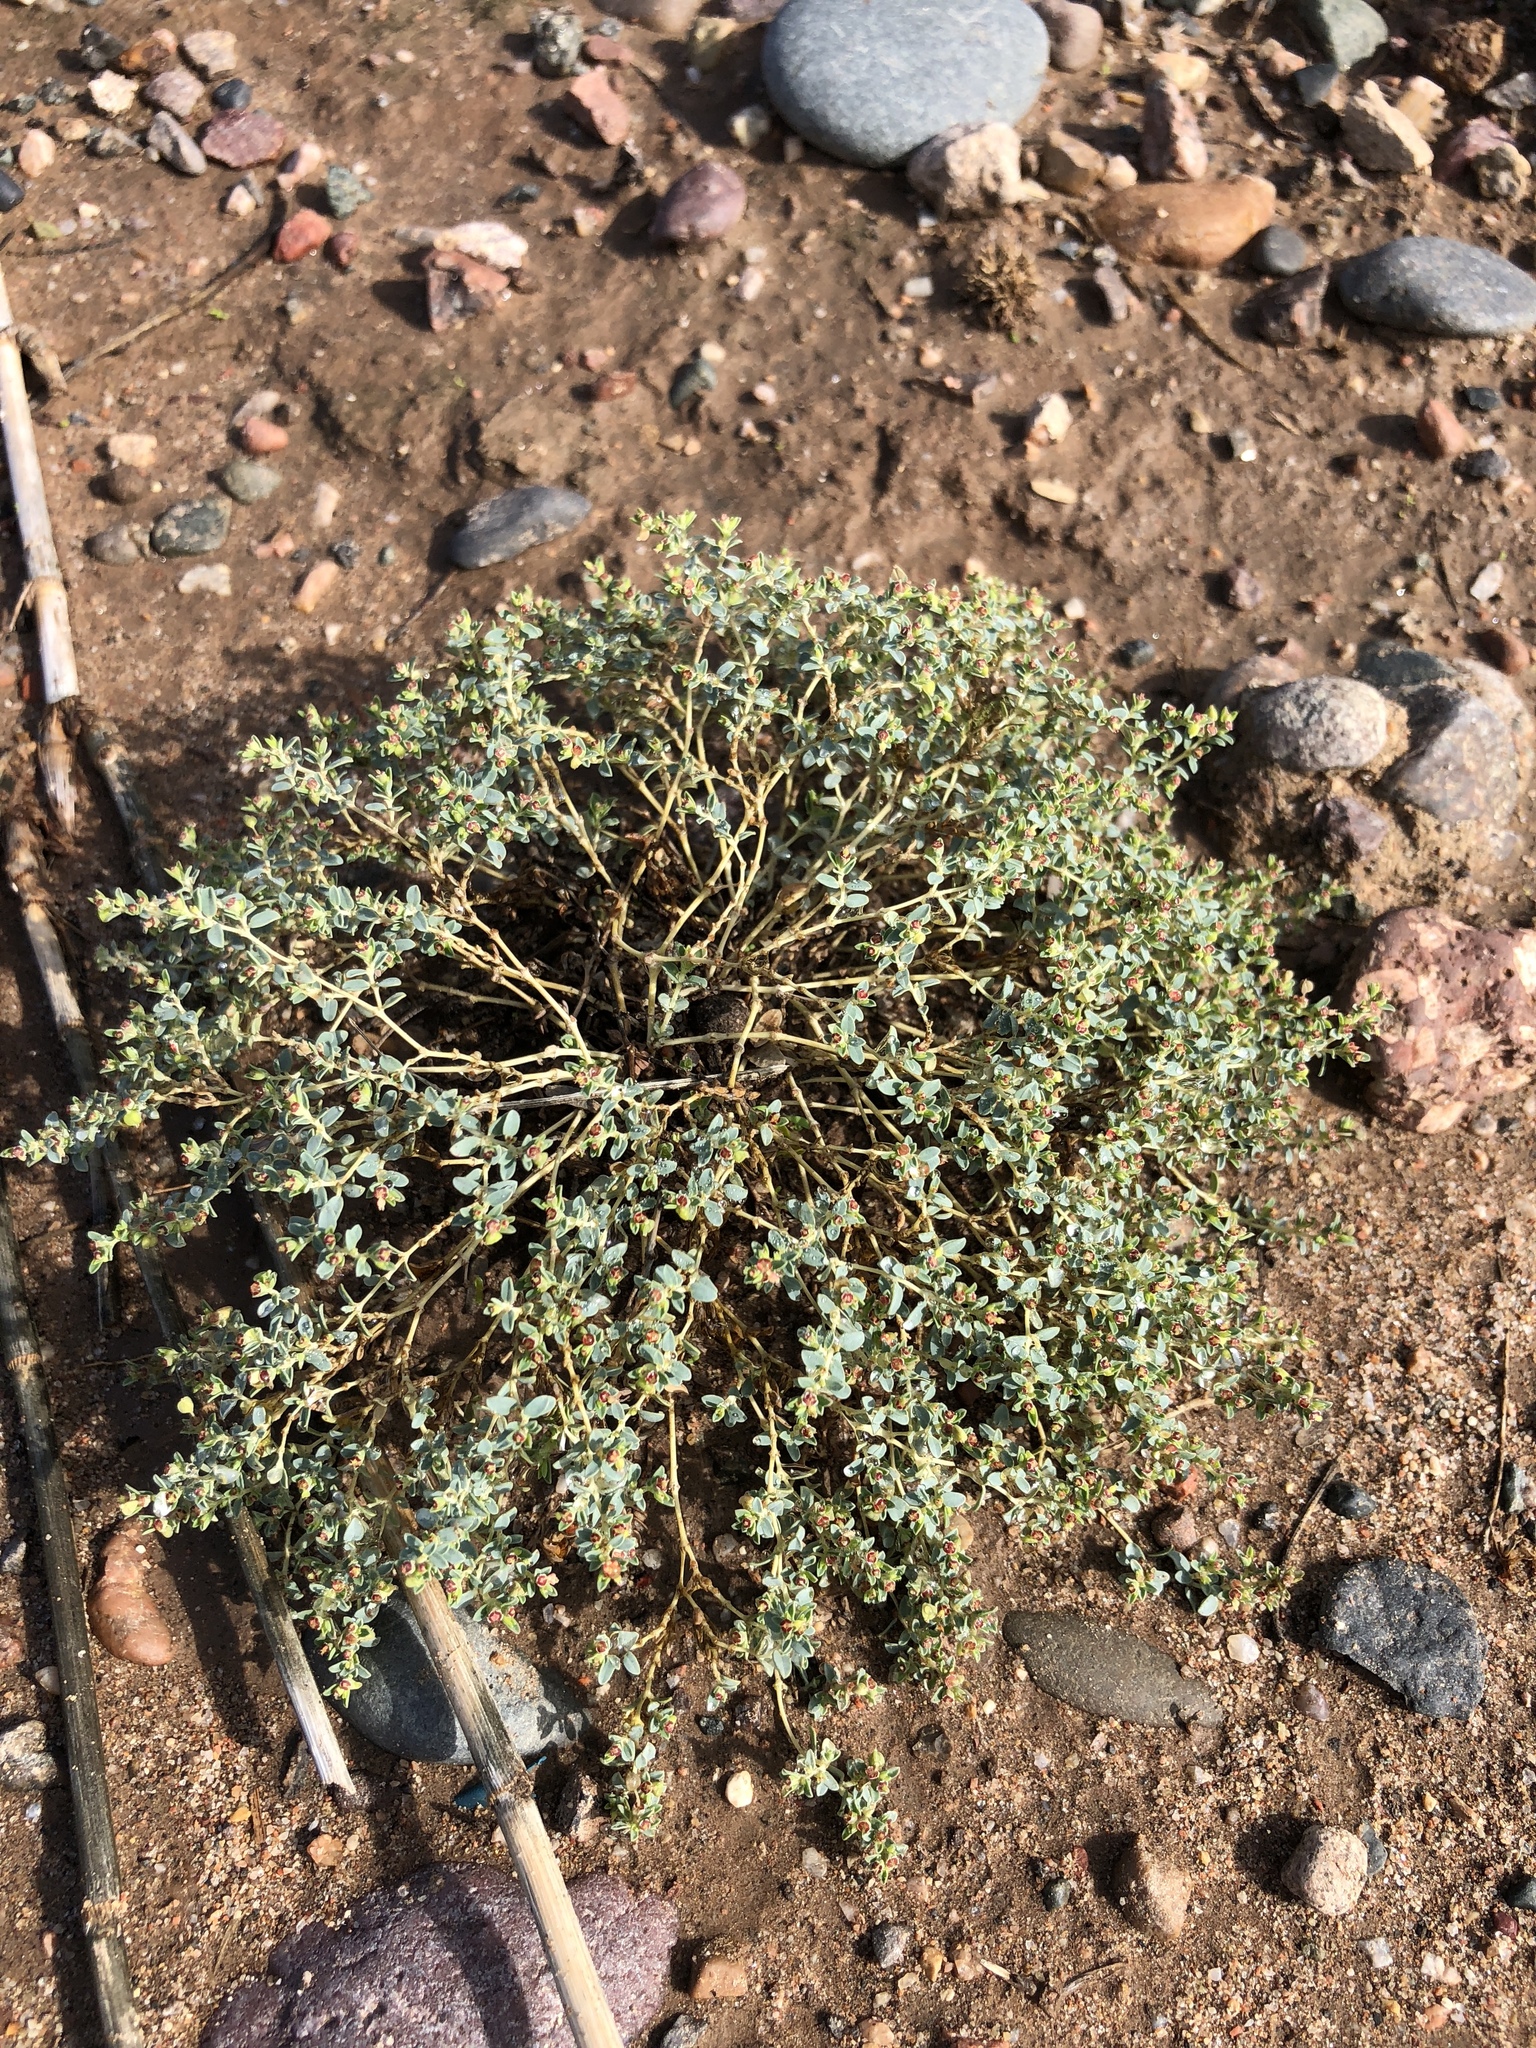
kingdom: Plantae
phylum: Tracheophyta
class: Magnoliopsida
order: Malpighiales
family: Euphorbiaceae
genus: Euphorbia
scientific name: Euphorbia polycarpa
